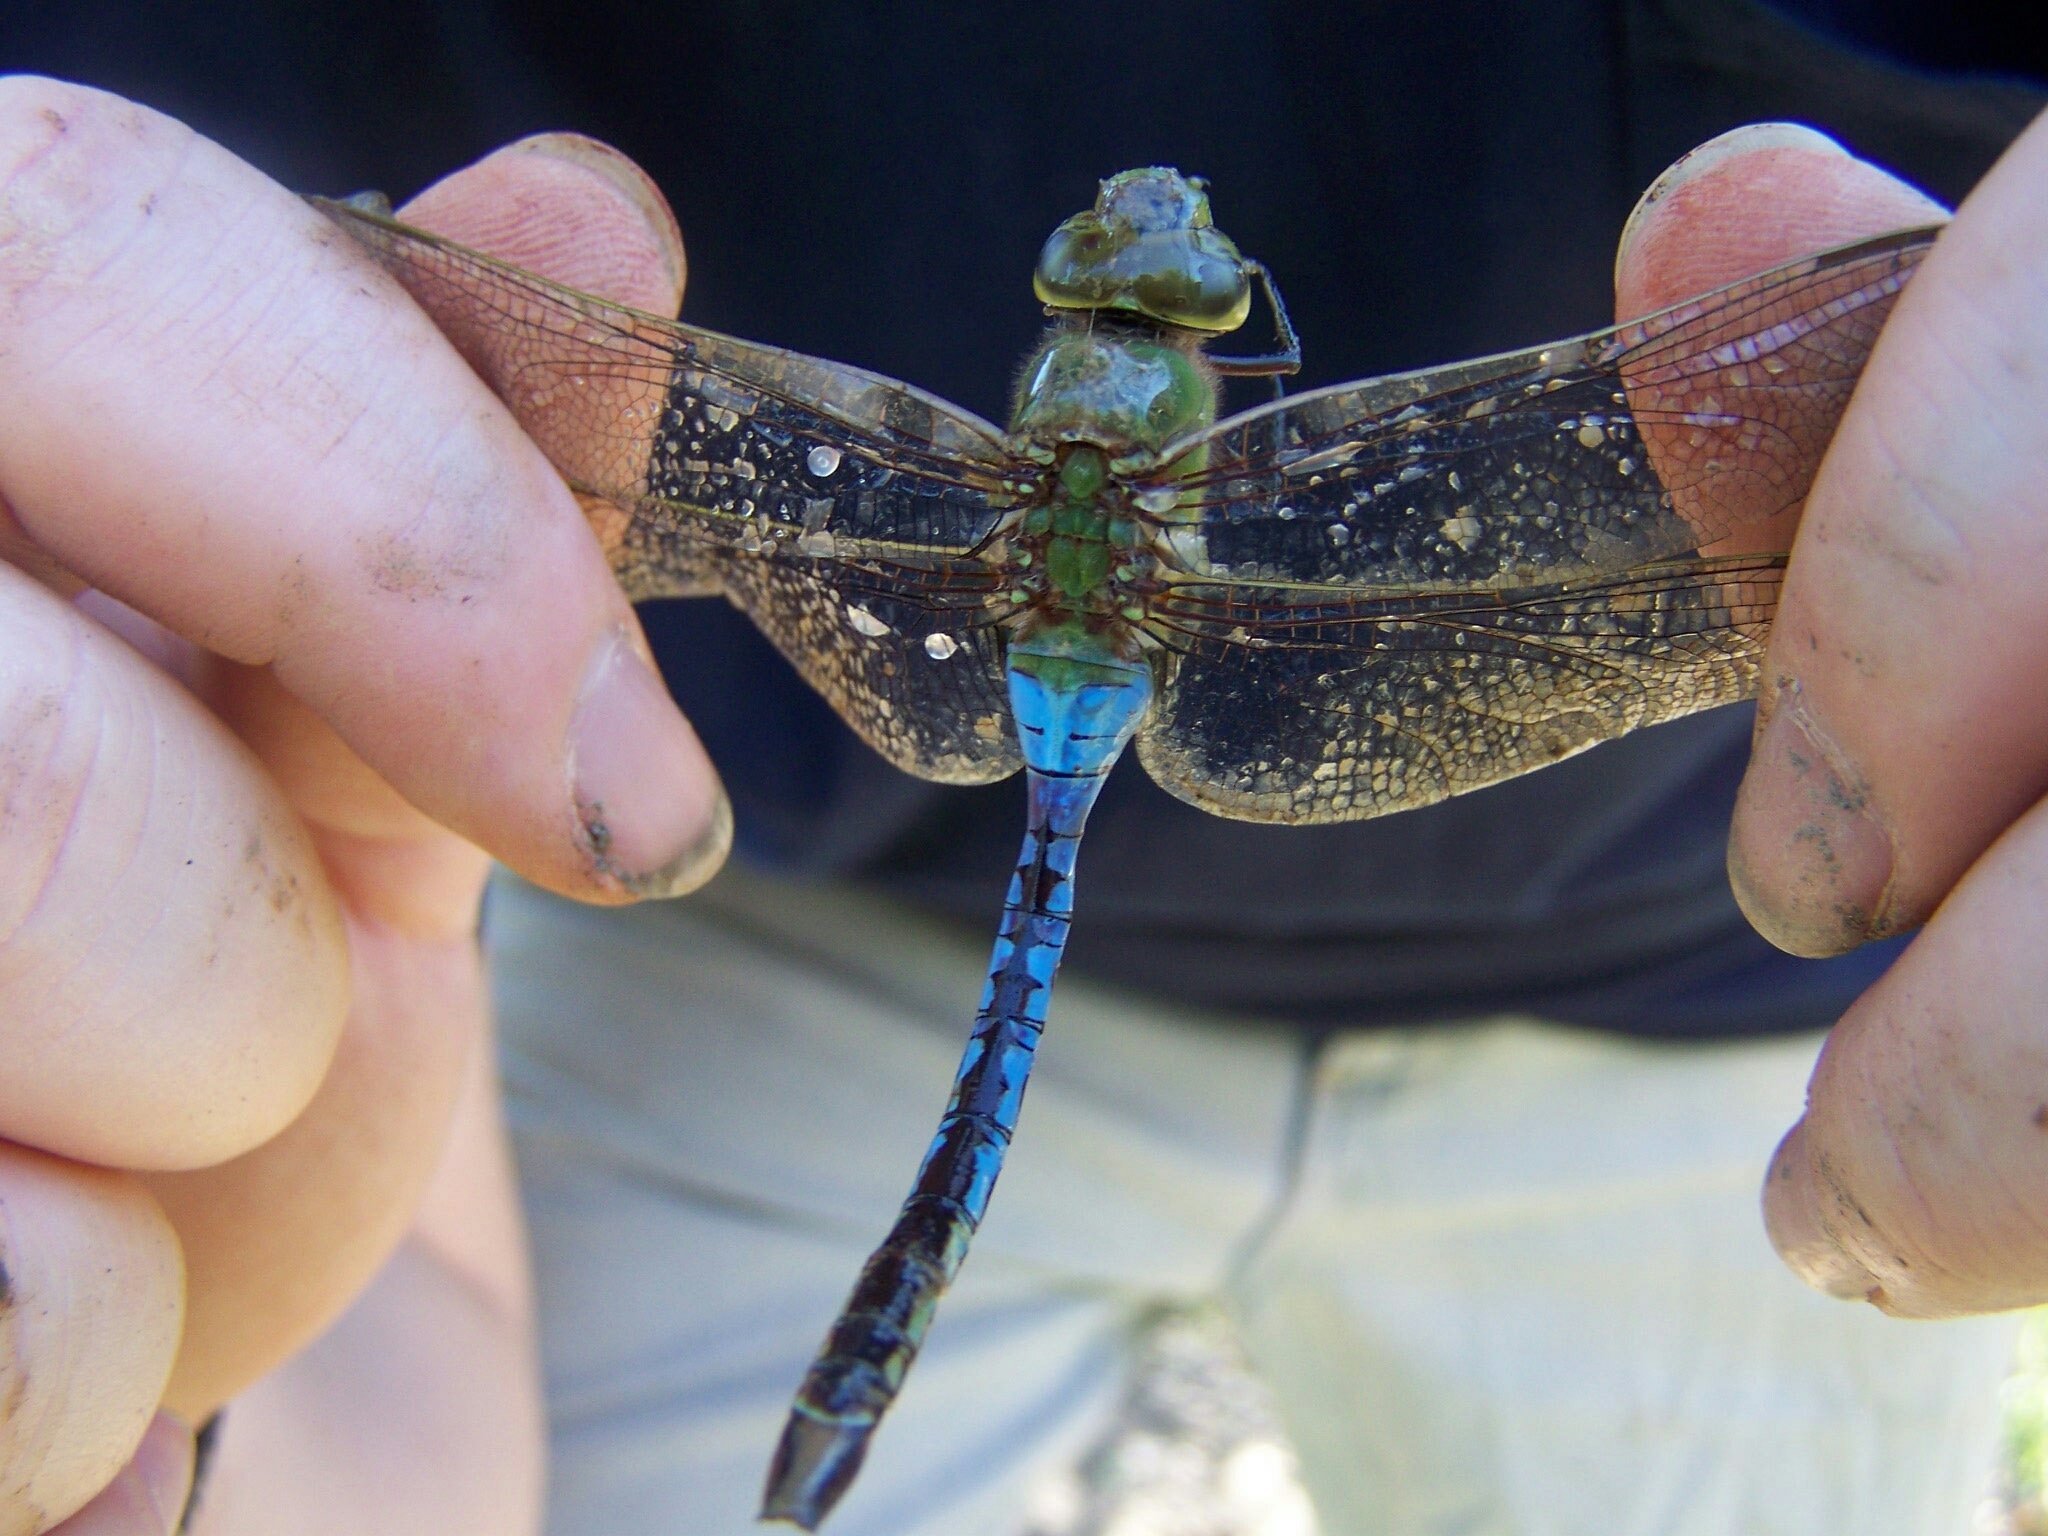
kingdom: Animalia
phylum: Arthropoda
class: Insecta
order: Odonata
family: Aeshnidae
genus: Anax
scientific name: Anax junius
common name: Common green darner
